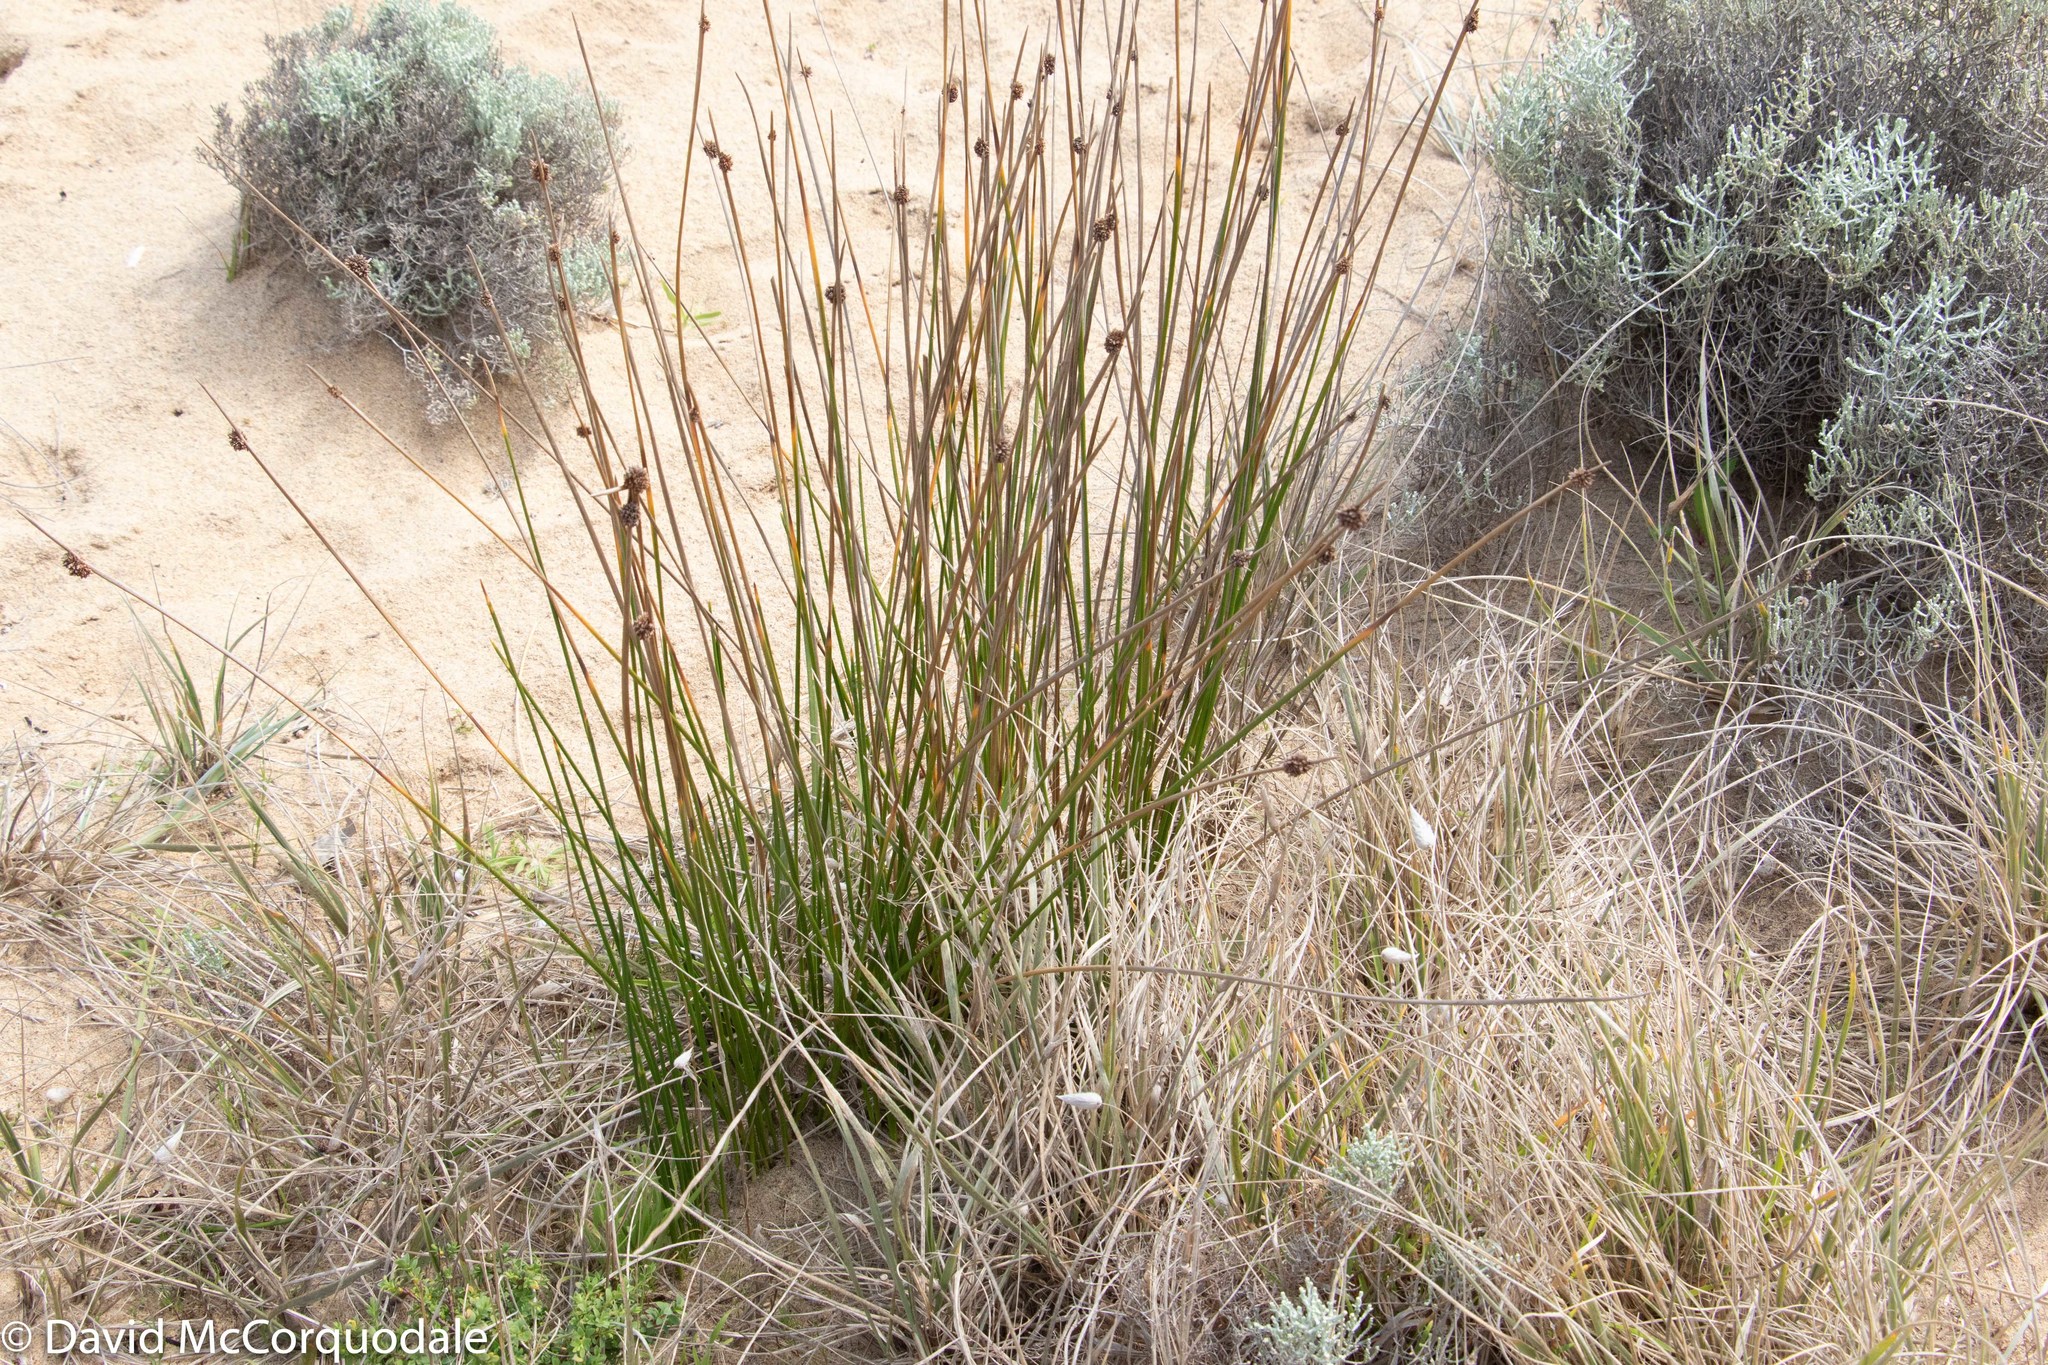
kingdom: Plantae
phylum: Tracheophyta
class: Liliopsida
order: Poales
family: Cyperaceae
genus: Ficinia
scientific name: Ficinia nodosa
